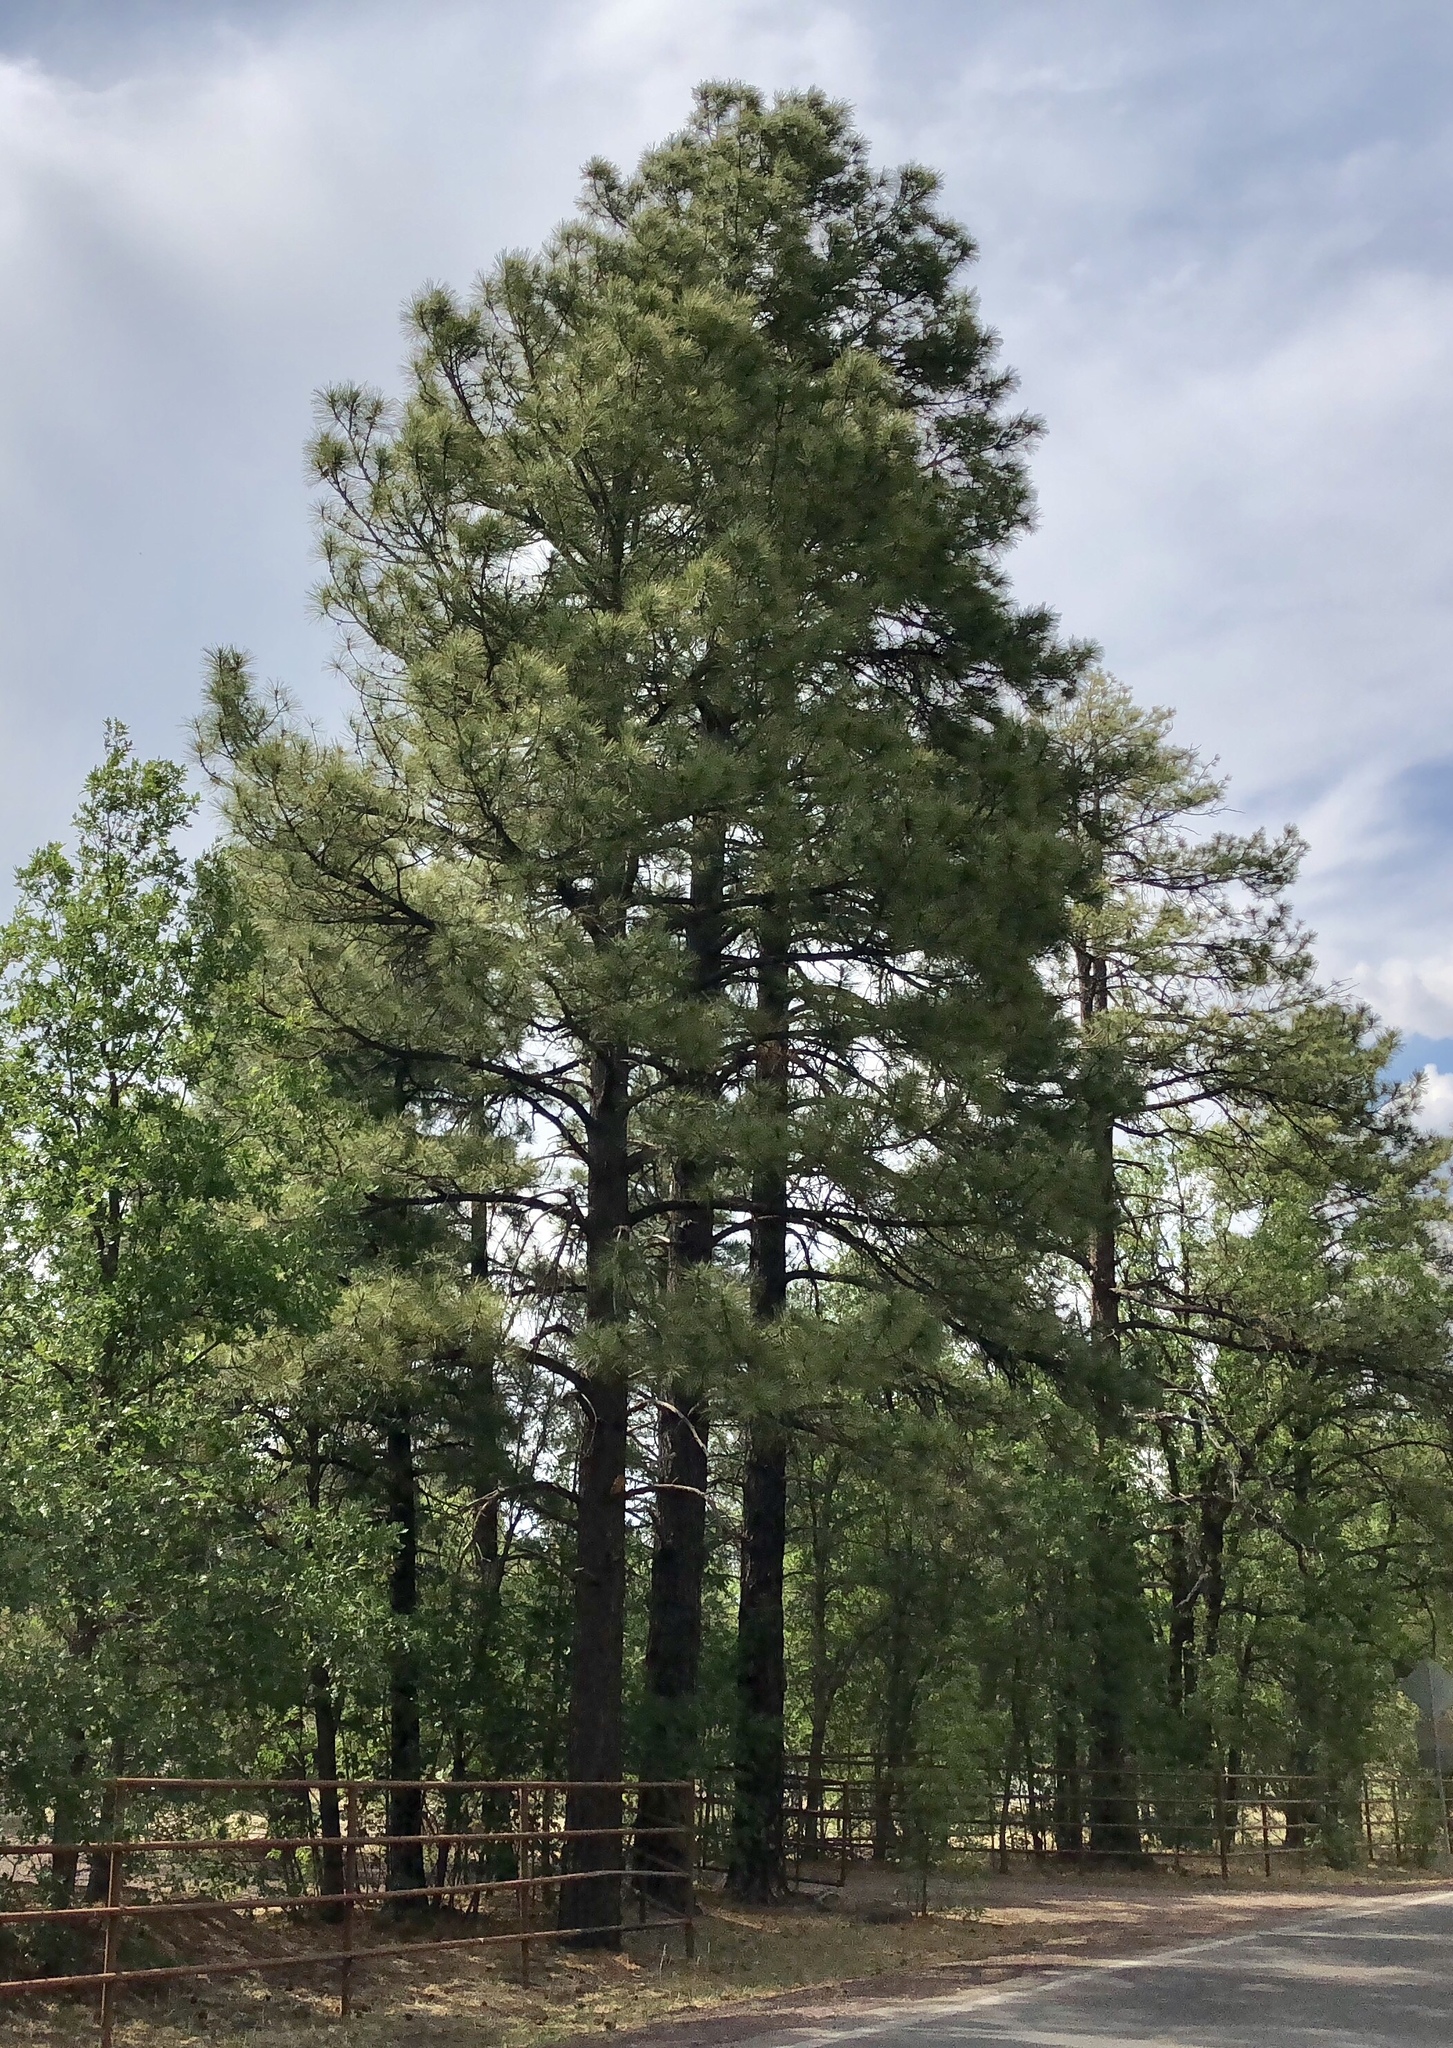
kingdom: Plantae
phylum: Tracheophyta
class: Pinopsida
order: Pinales
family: Pinaceae
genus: Pinus
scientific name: Pinus ponderosa
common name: Western yellow-pine
